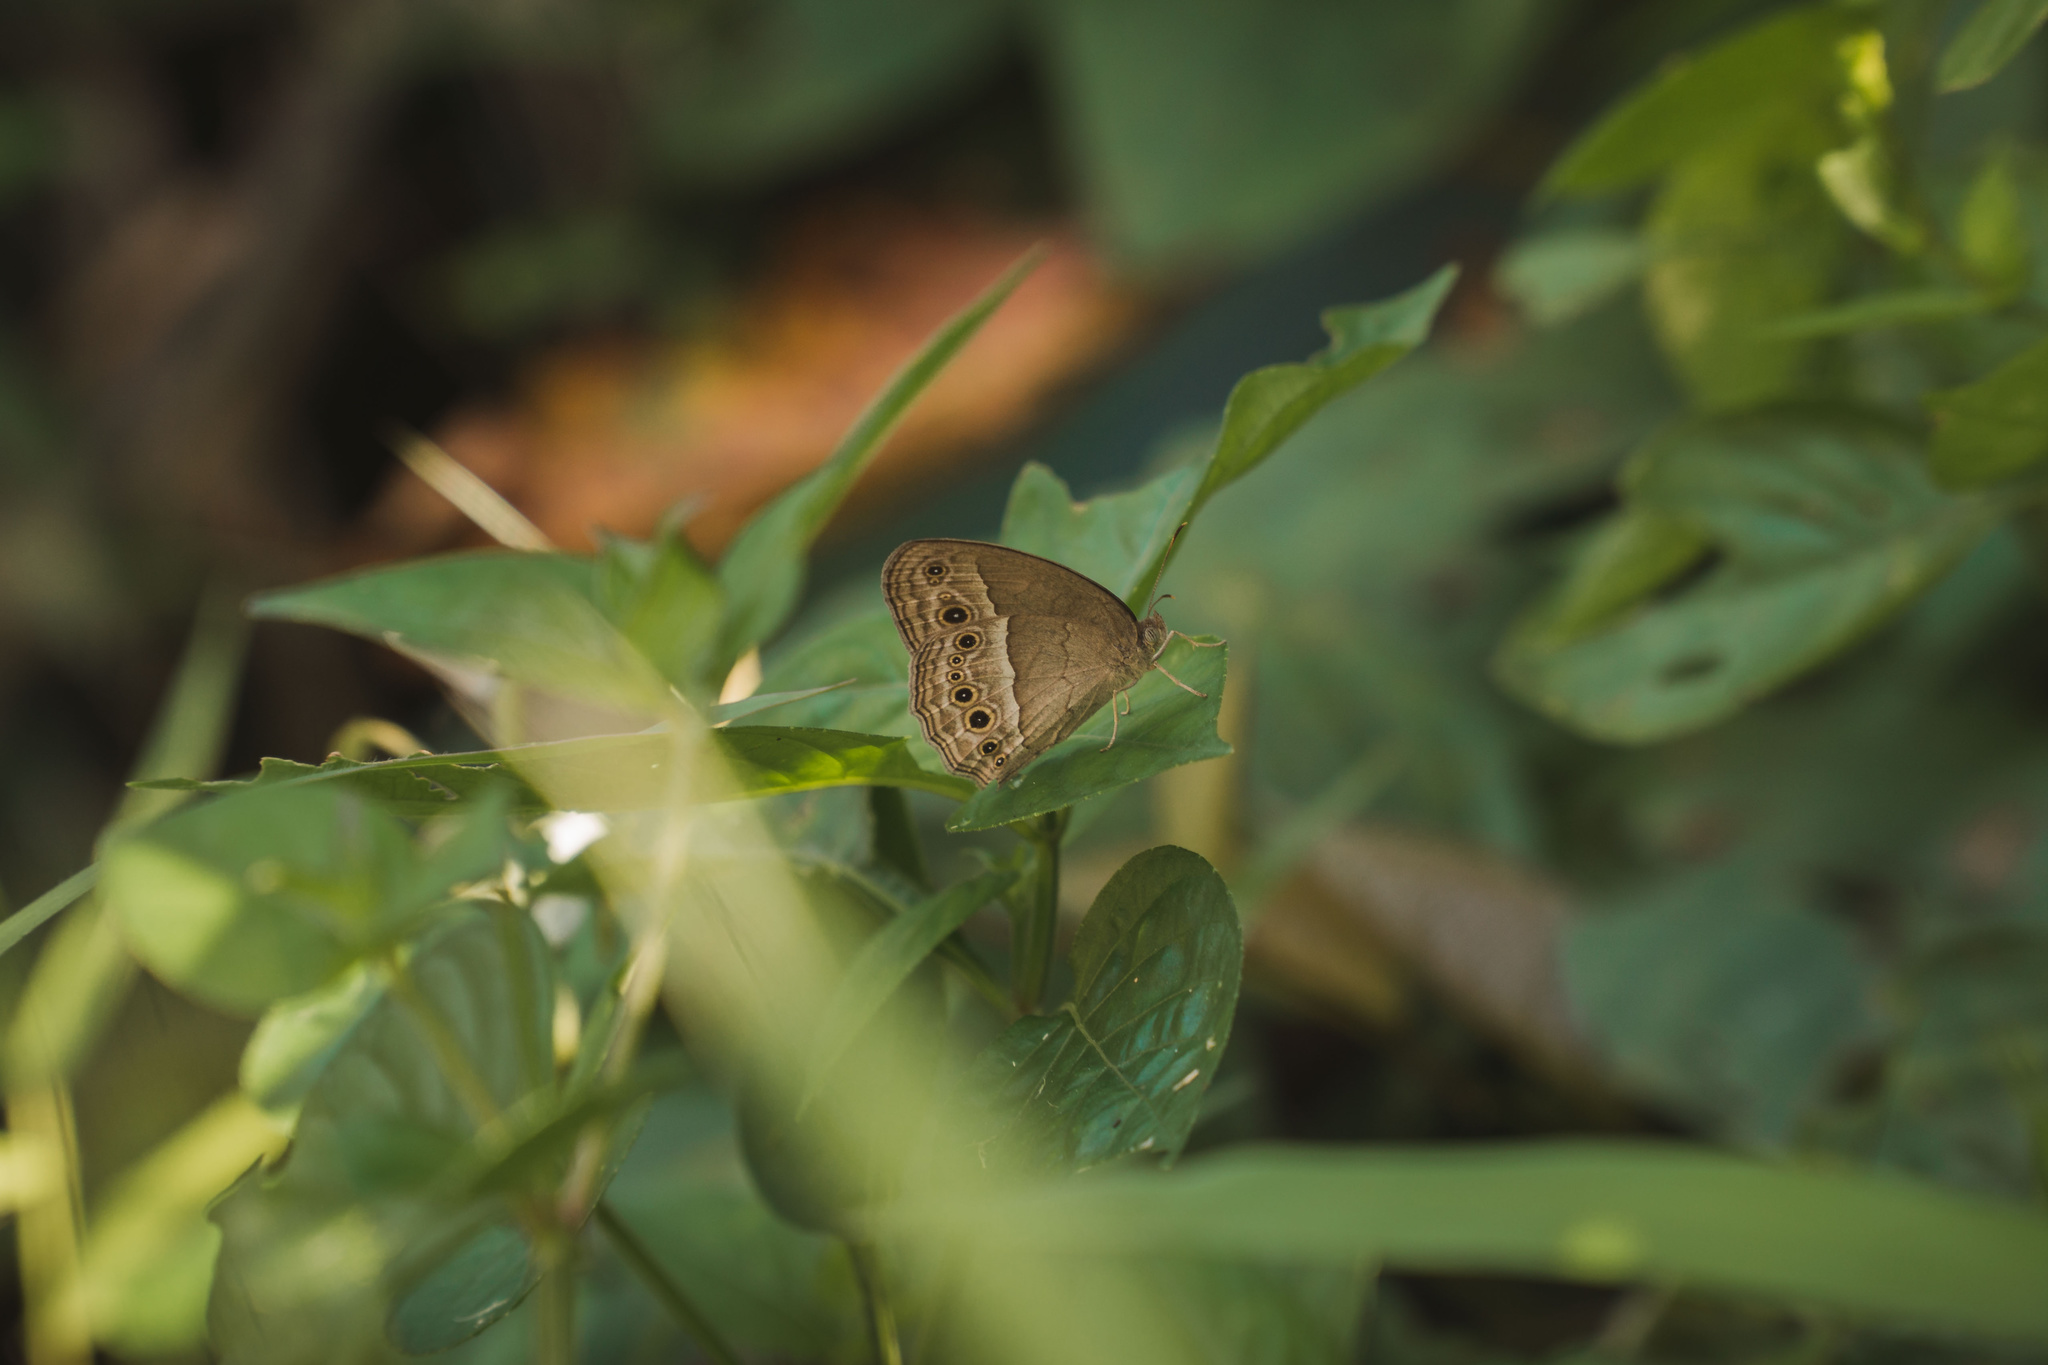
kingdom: Animalia
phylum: Arthropoda
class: Insecta
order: Lepidoptera
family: Nymphalidae
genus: Mycalesis
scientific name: Mycalesis perseoides
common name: Burmese bushbrown
